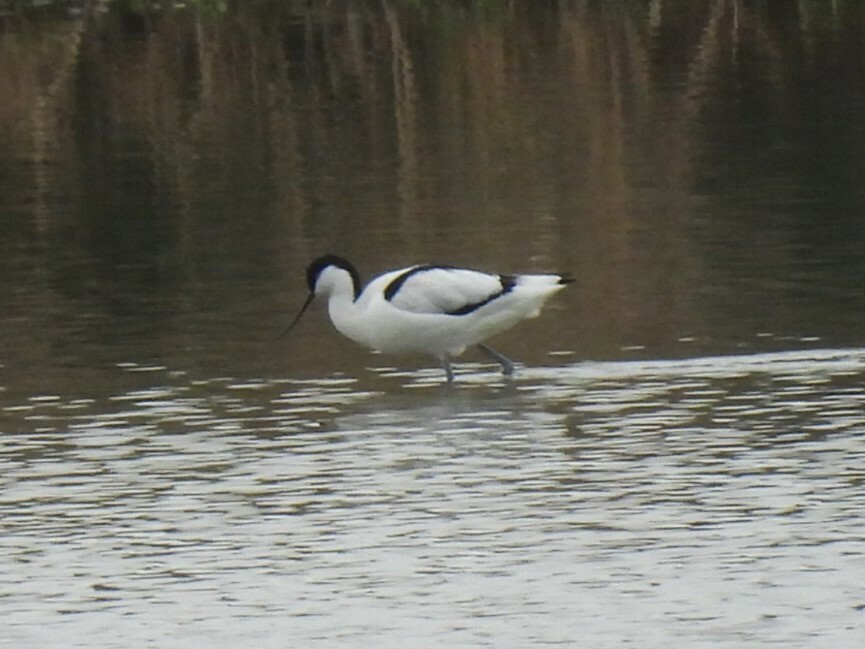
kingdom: Animalia
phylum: Chordata
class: Aves
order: Charadriiformes
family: Recurvirostridae
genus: Recurvirostra
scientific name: Recurvirostra avosetta
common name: Pied avocet
